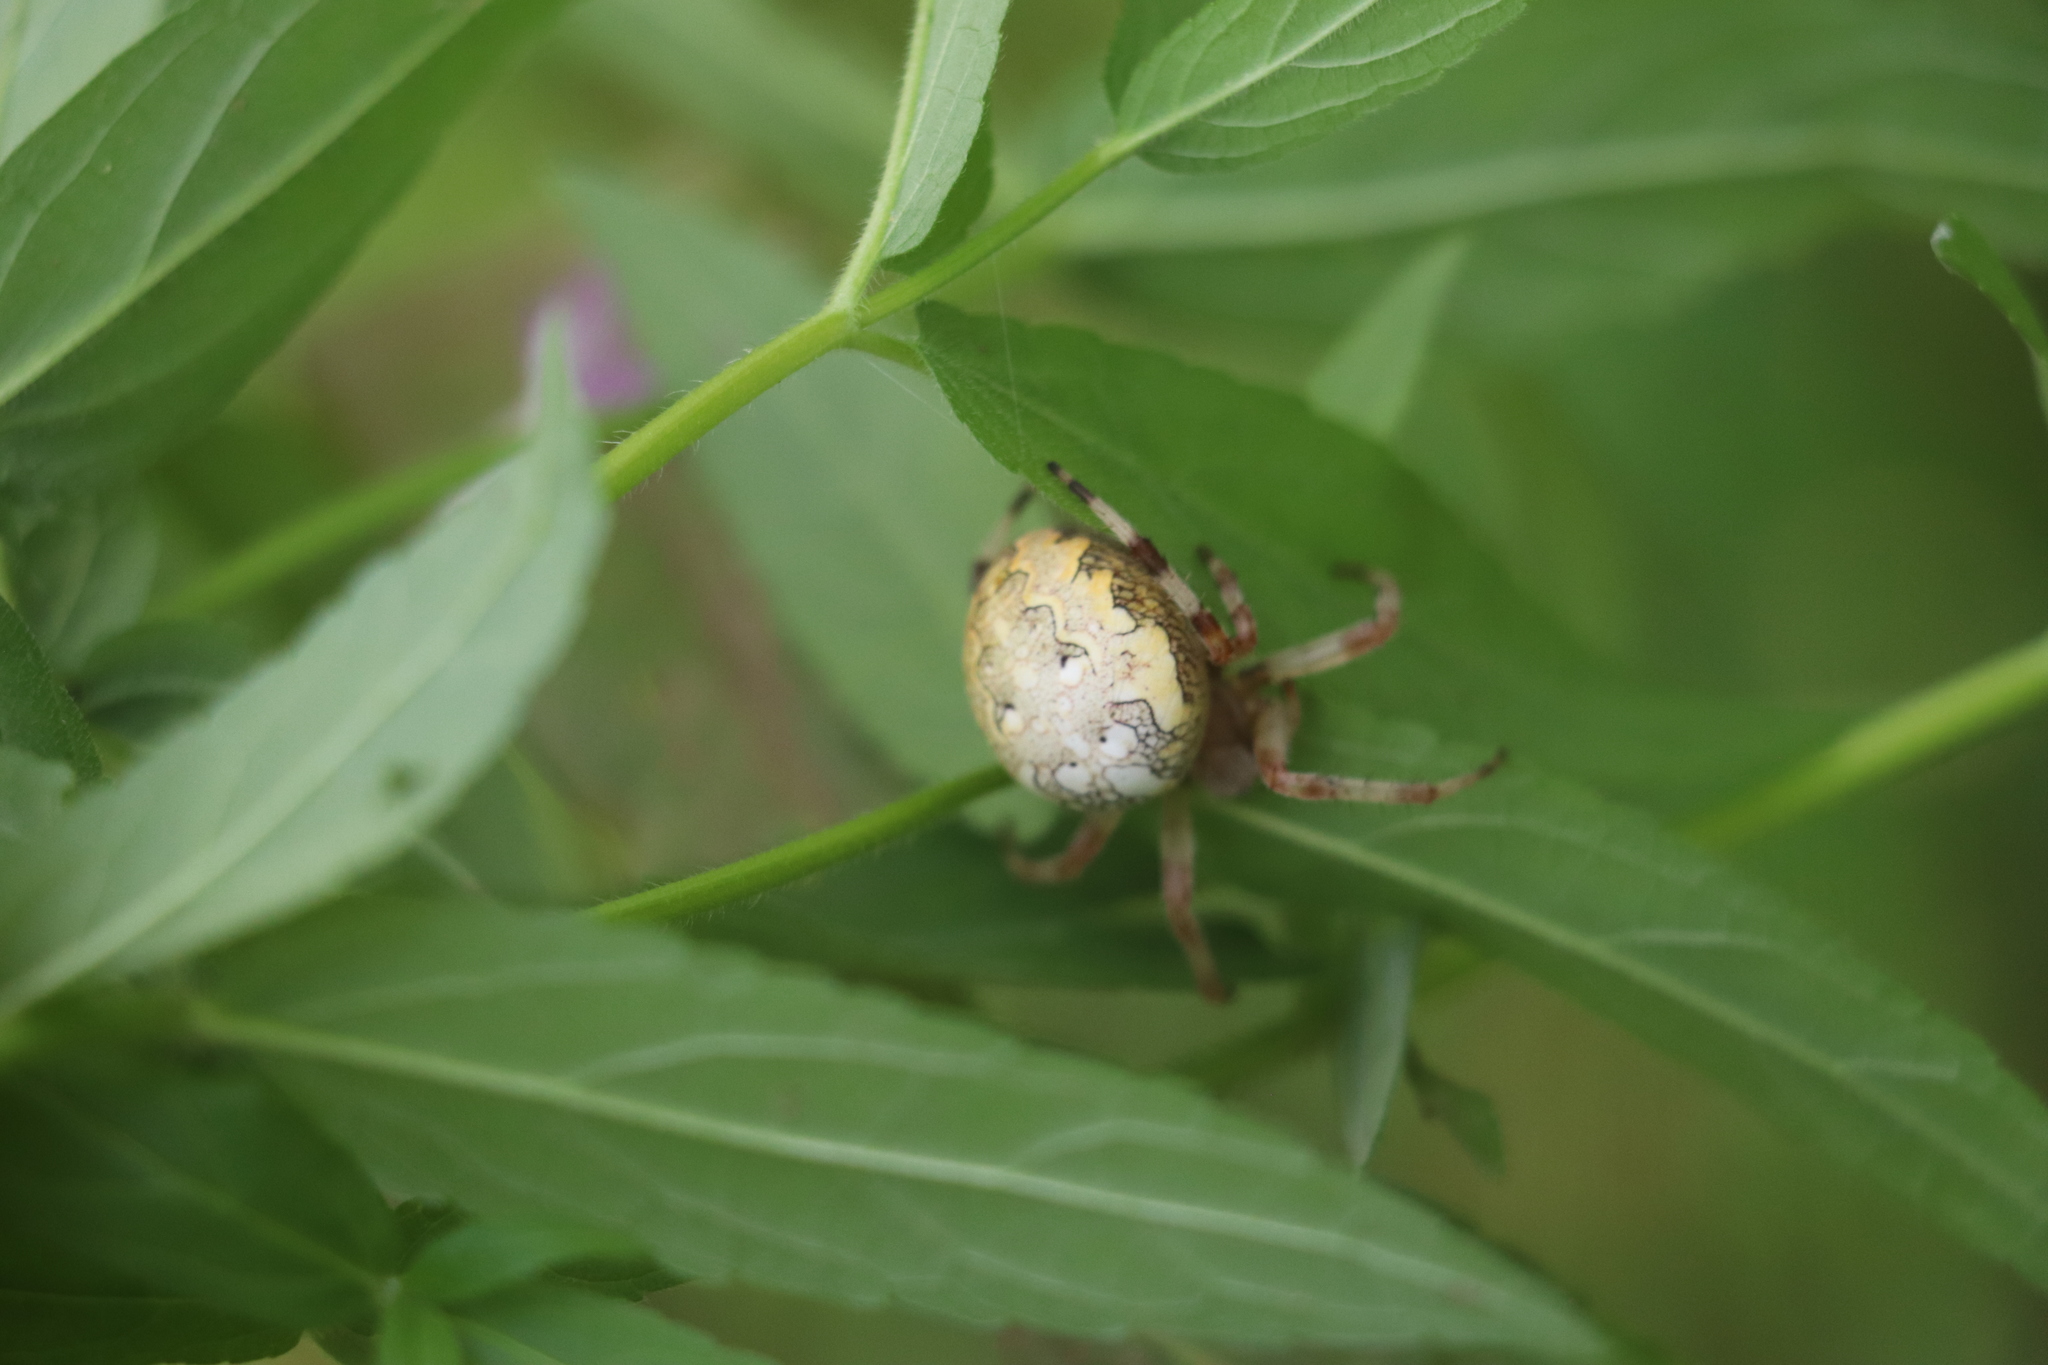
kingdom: Animalia
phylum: Arthropoda
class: Arachnida
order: Araneae
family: Araneidae
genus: Araneus
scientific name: Araneus marmoreus
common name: Marbled orbweaver
